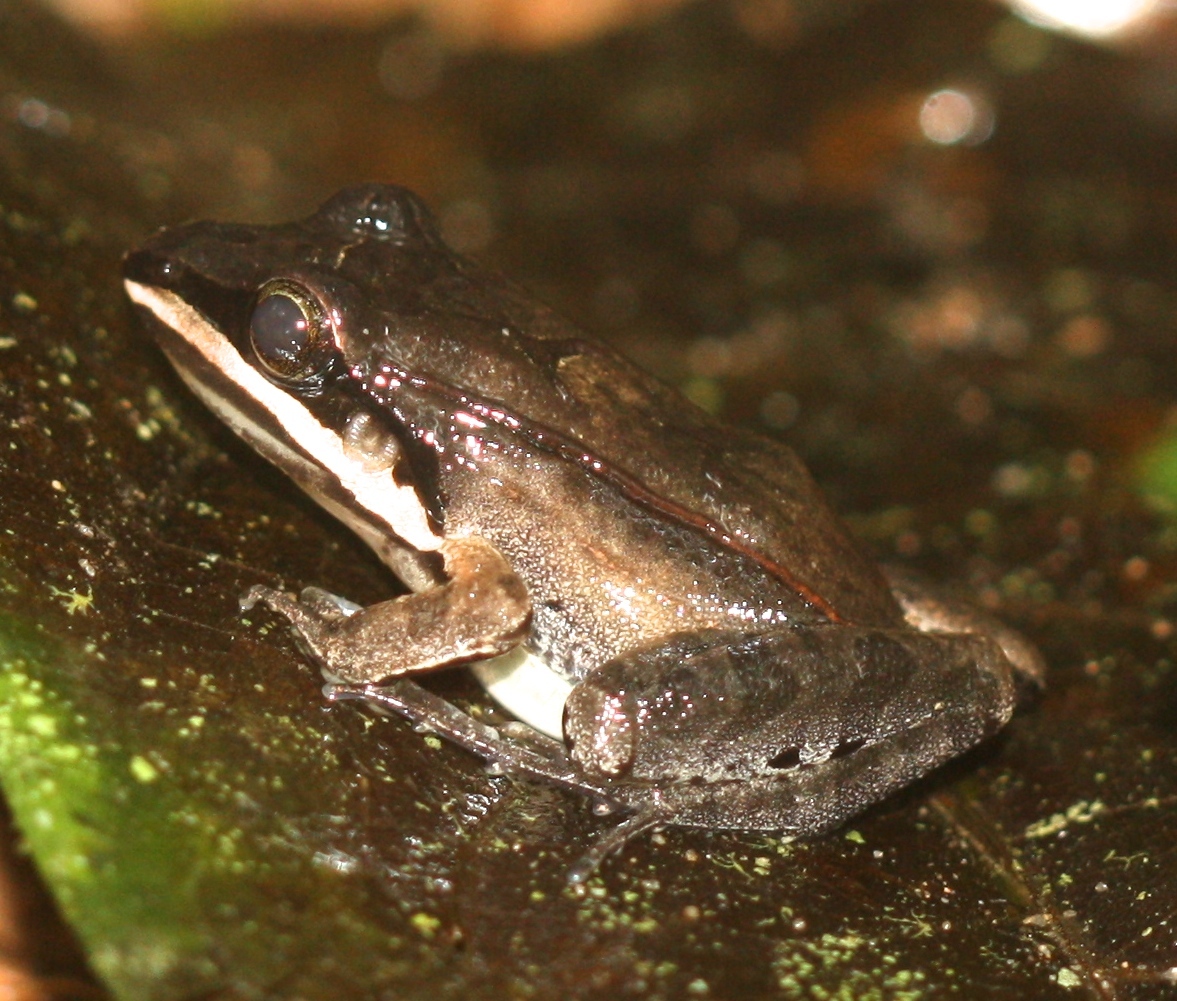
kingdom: Animalia
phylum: Chordata
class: Amphibia
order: Anura
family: Leptodactylidae
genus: Leptodactylus
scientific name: Leptodactylus didymus
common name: Madre de dios thin-toed frog
